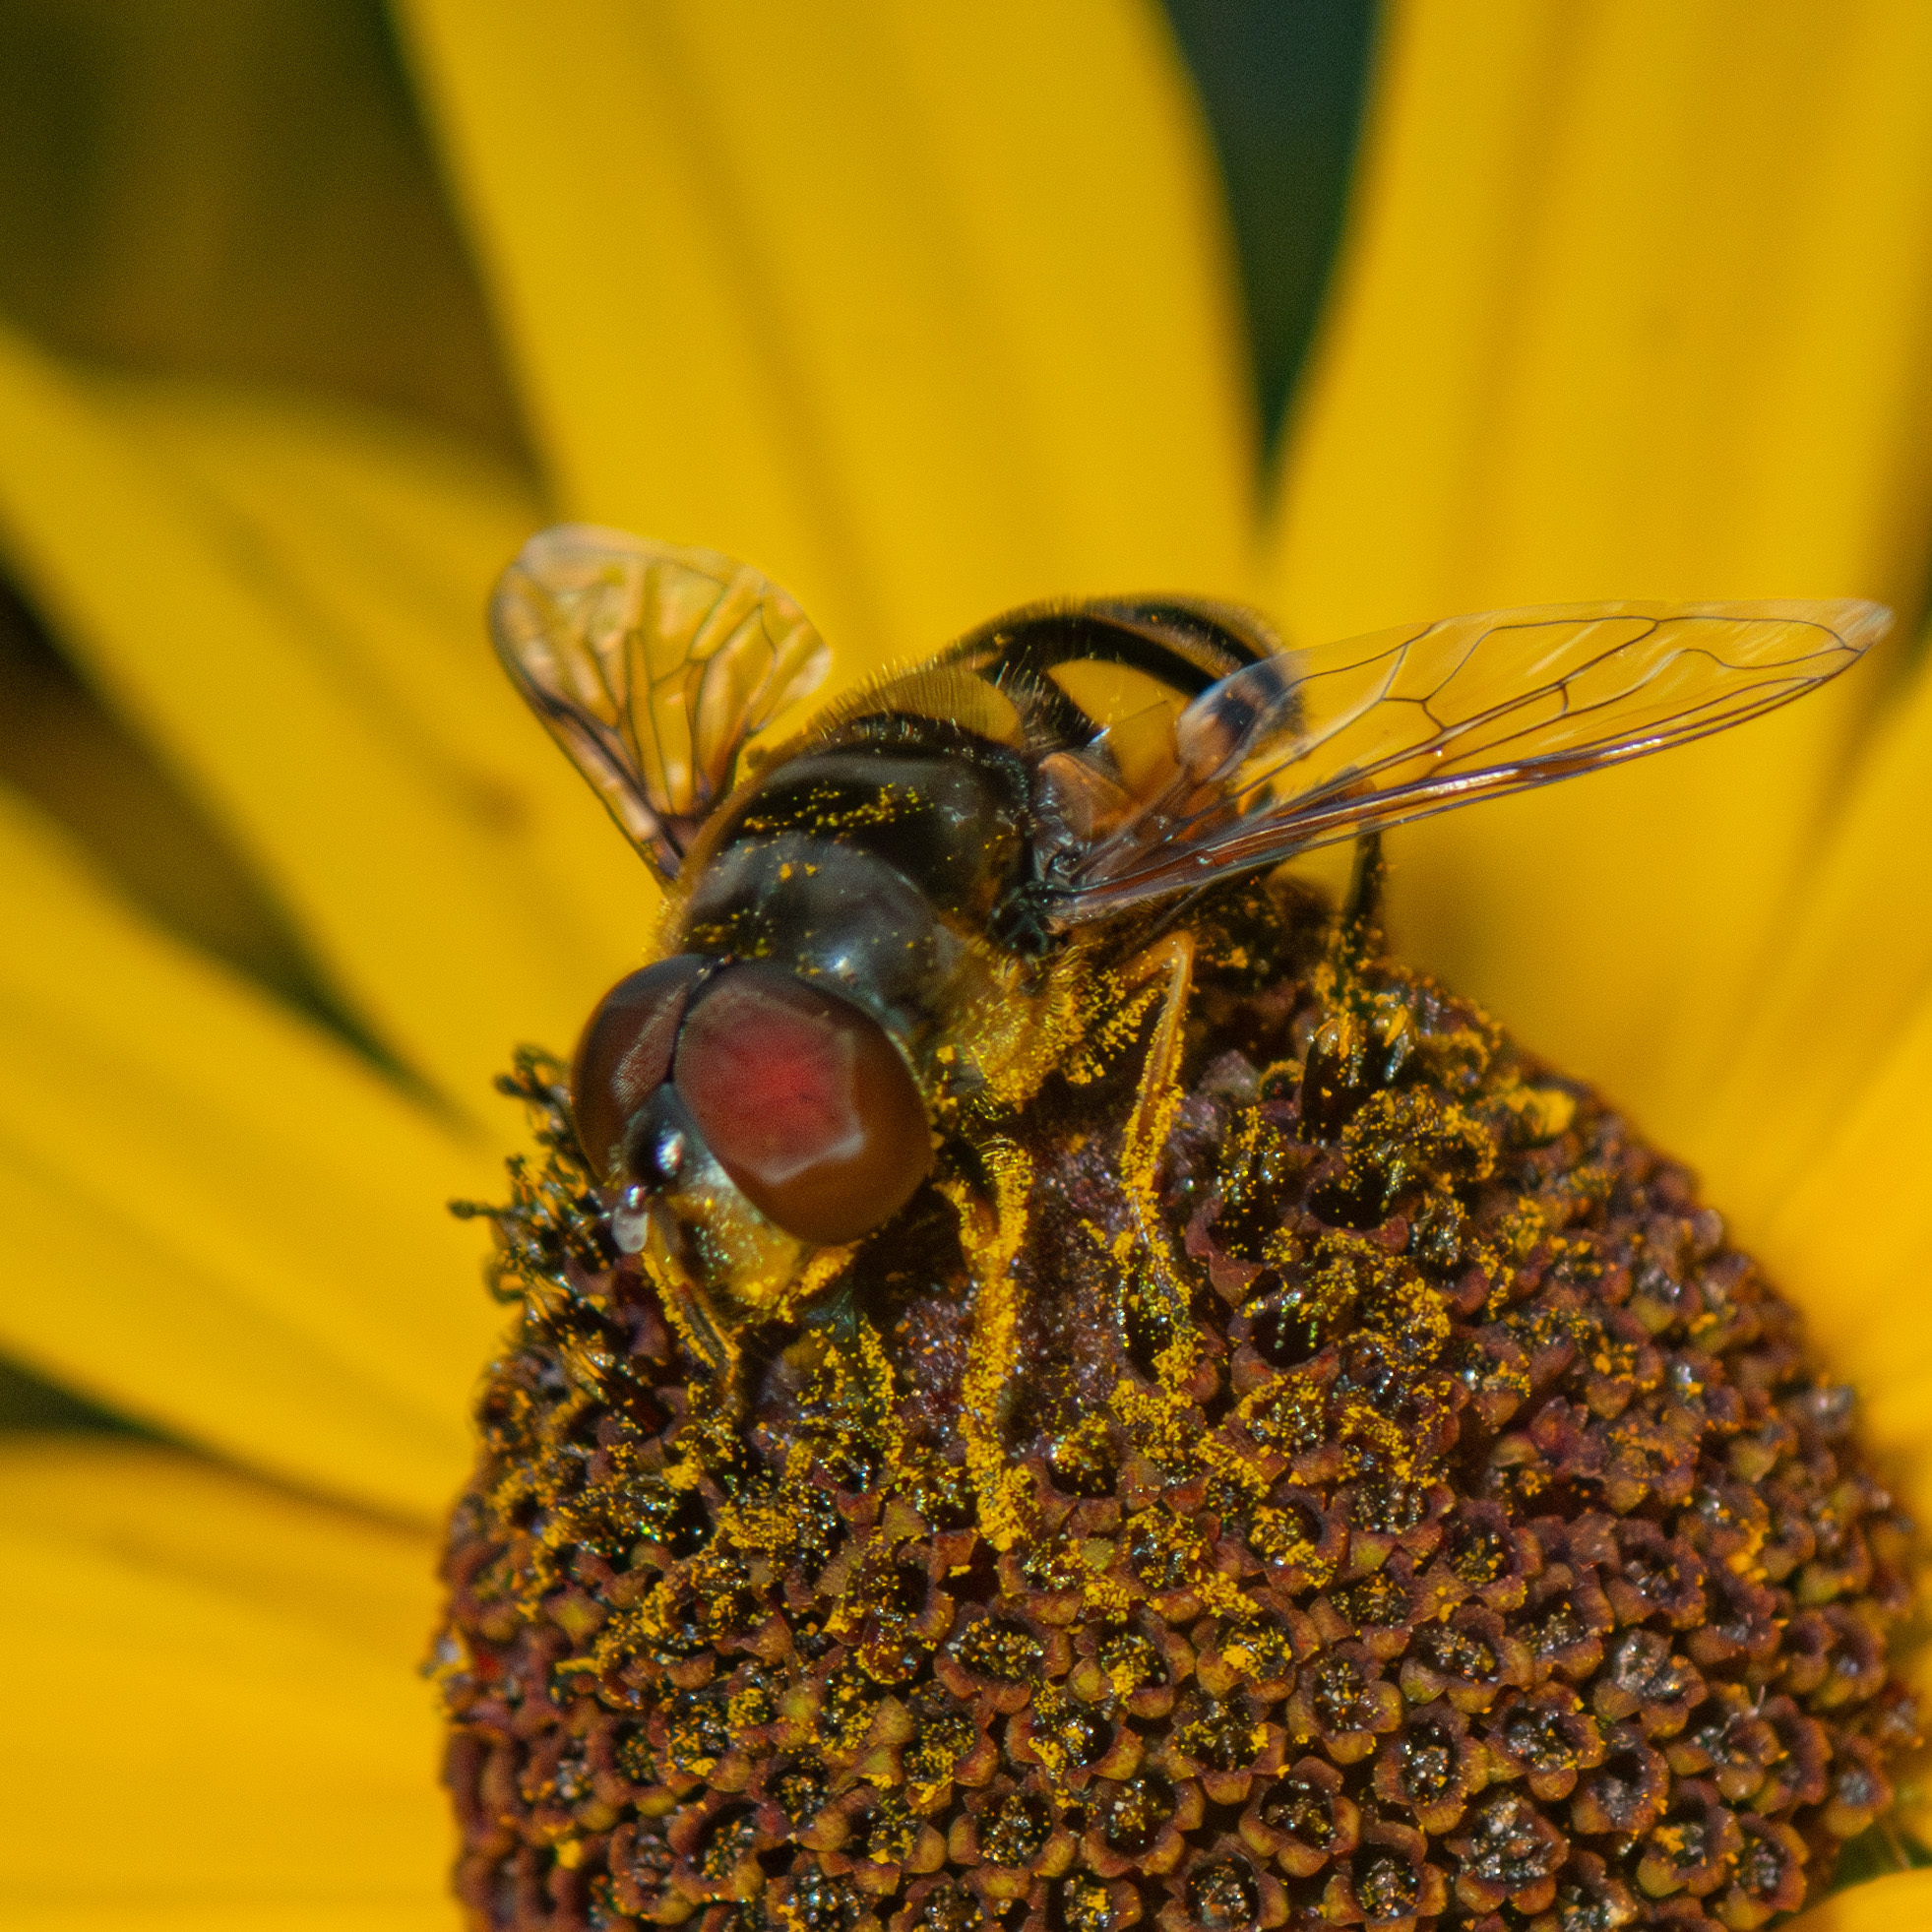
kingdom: Animalia
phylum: Arthropoda
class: Insecta
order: Diptera
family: Syrphidae
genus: Eristalis
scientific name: Eristalis transversa
